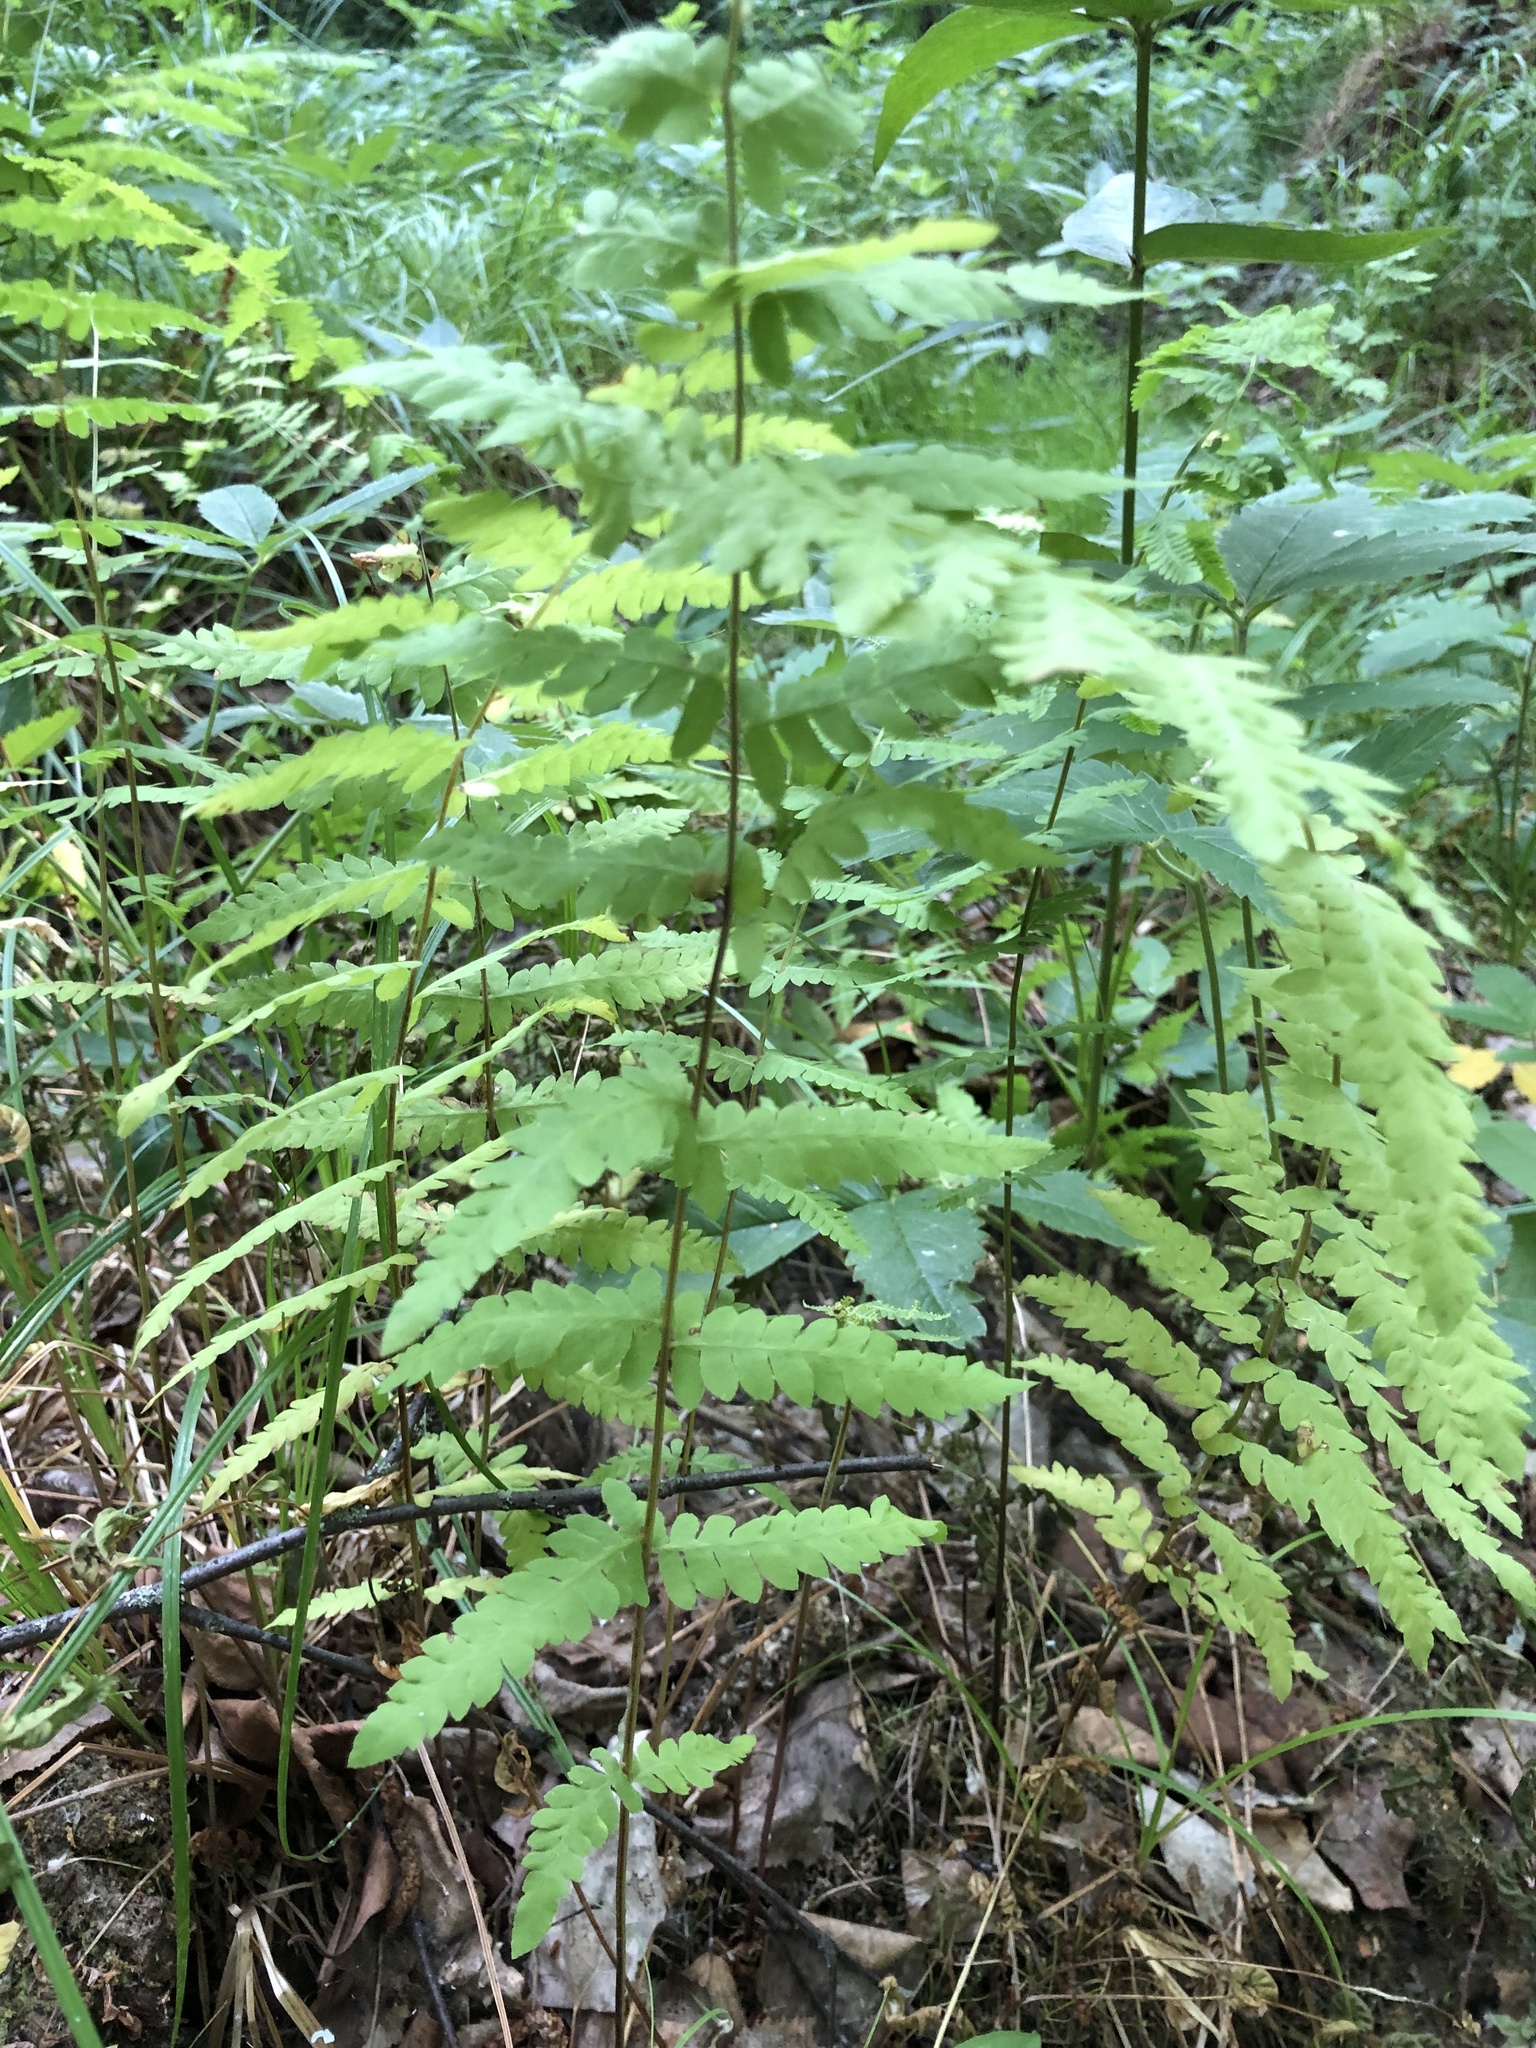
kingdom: Plantae
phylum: Tracheophyta
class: Polypodiopsida
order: Polypodiales
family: Thelypteridaceae
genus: Thelypteris
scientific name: Thelypteris palustris
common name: Marsh fern
